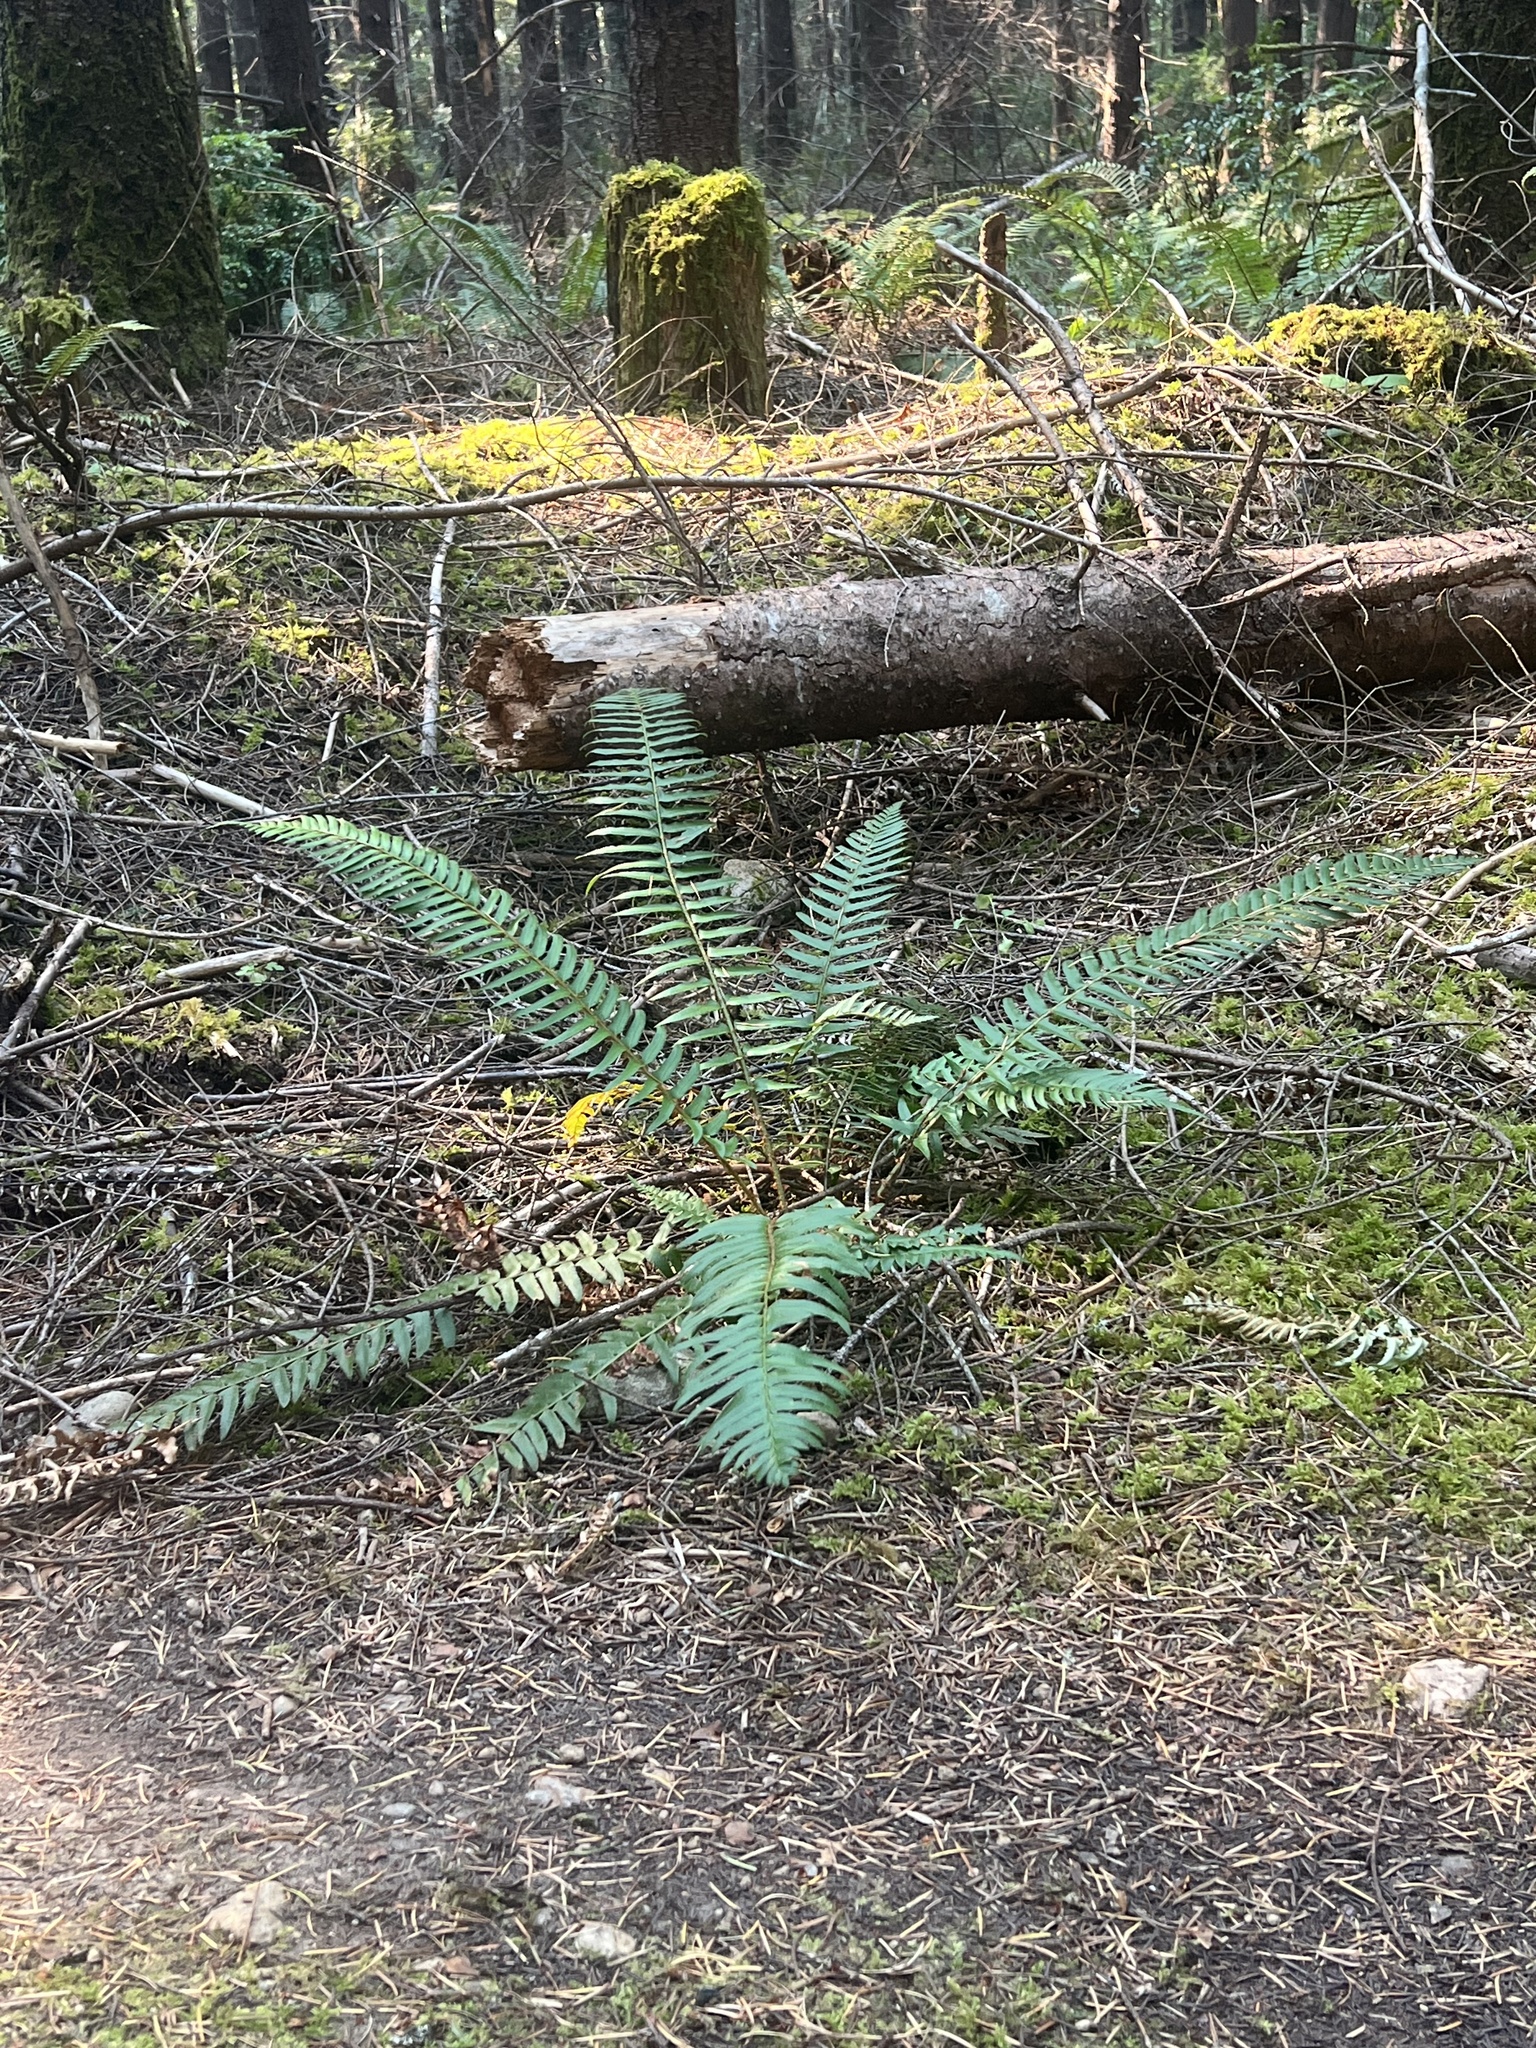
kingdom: Plantae
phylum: Tracheophyta
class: Polypodiopsida
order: Polypodiales
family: Dryopteridaceae
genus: Polystichum
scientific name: Polystichum munitum
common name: Western sword-fern
